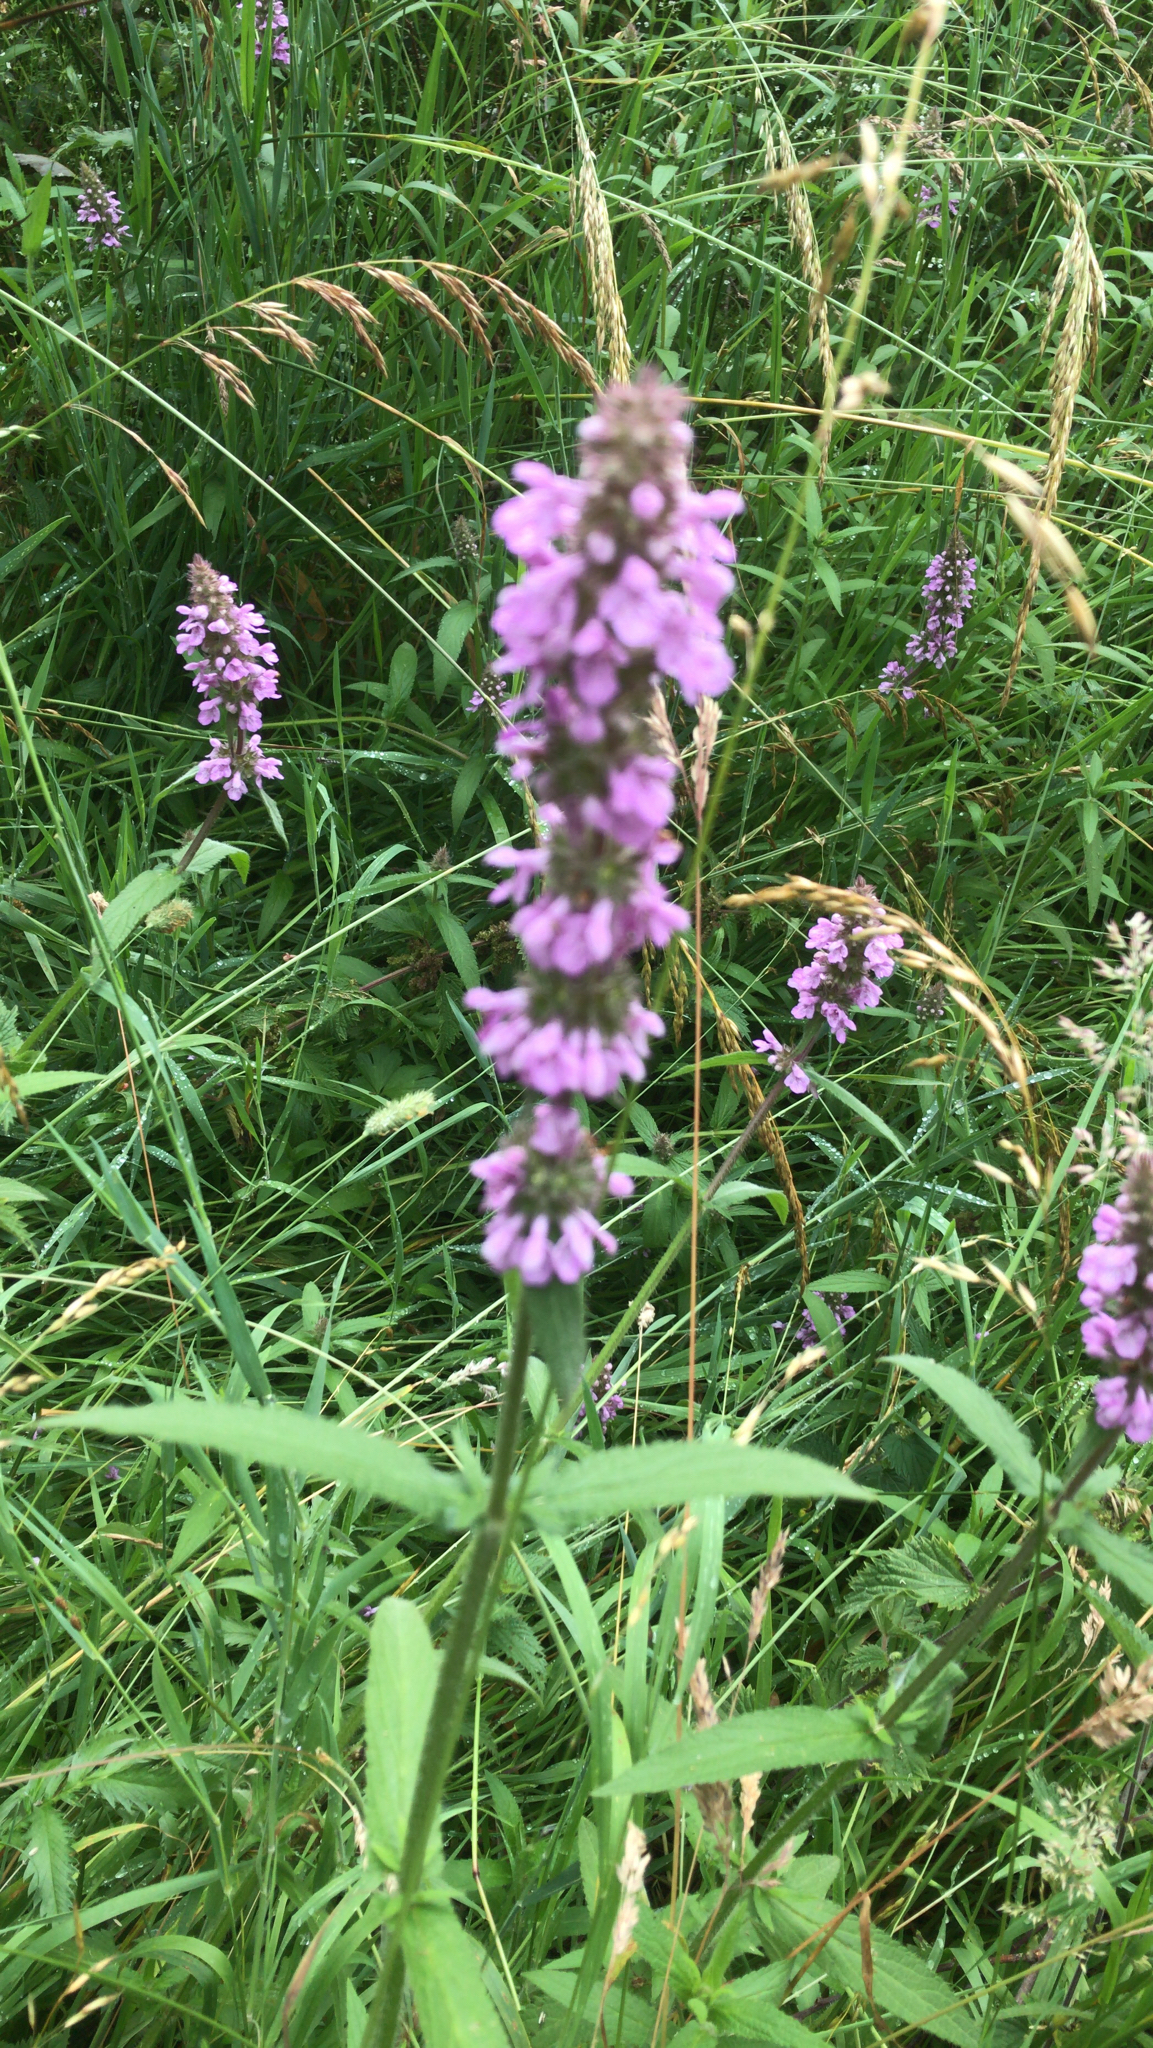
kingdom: Plantae
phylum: Tracheophyta
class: Magnoliopsida
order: Lamiales
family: Lamiaceae
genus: Stachys
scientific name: Stachys palustris
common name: Marsh woundwort
